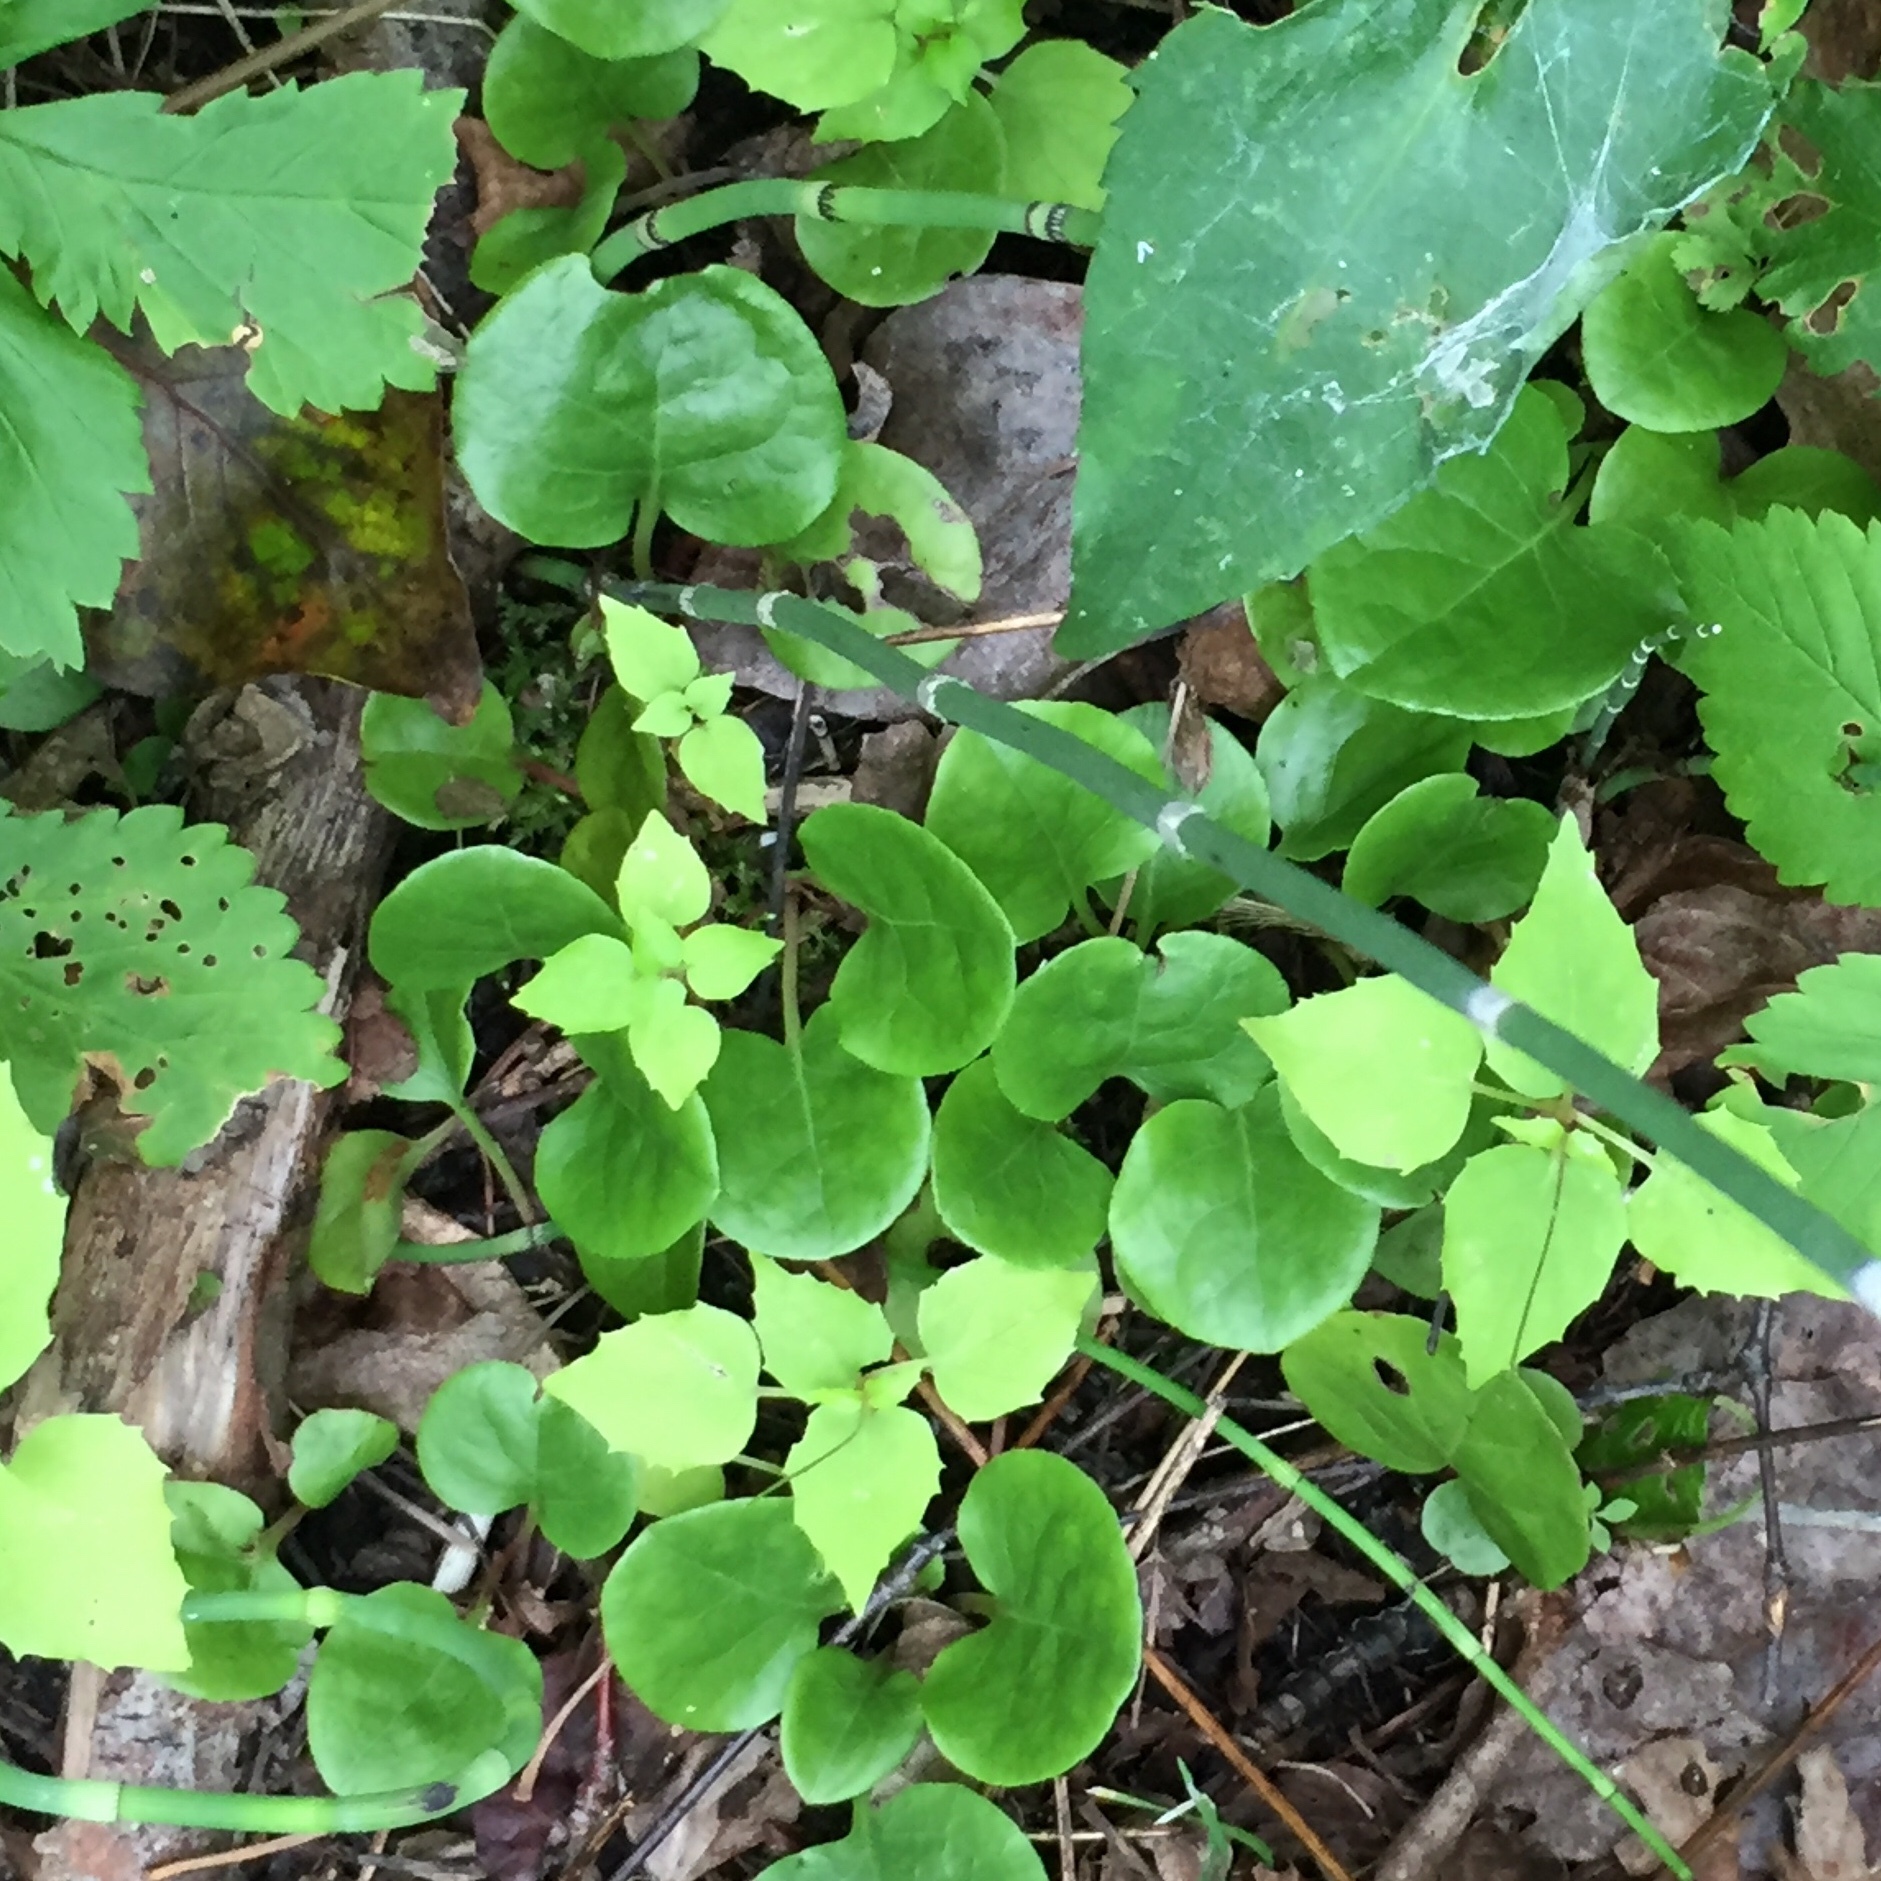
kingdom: Plantae
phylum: Tracheophyta
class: Magnoliopsida
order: Ericales
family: Ericaceae
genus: Pyrola
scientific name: Pyrola asarifolia
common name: Bog wintergreen
